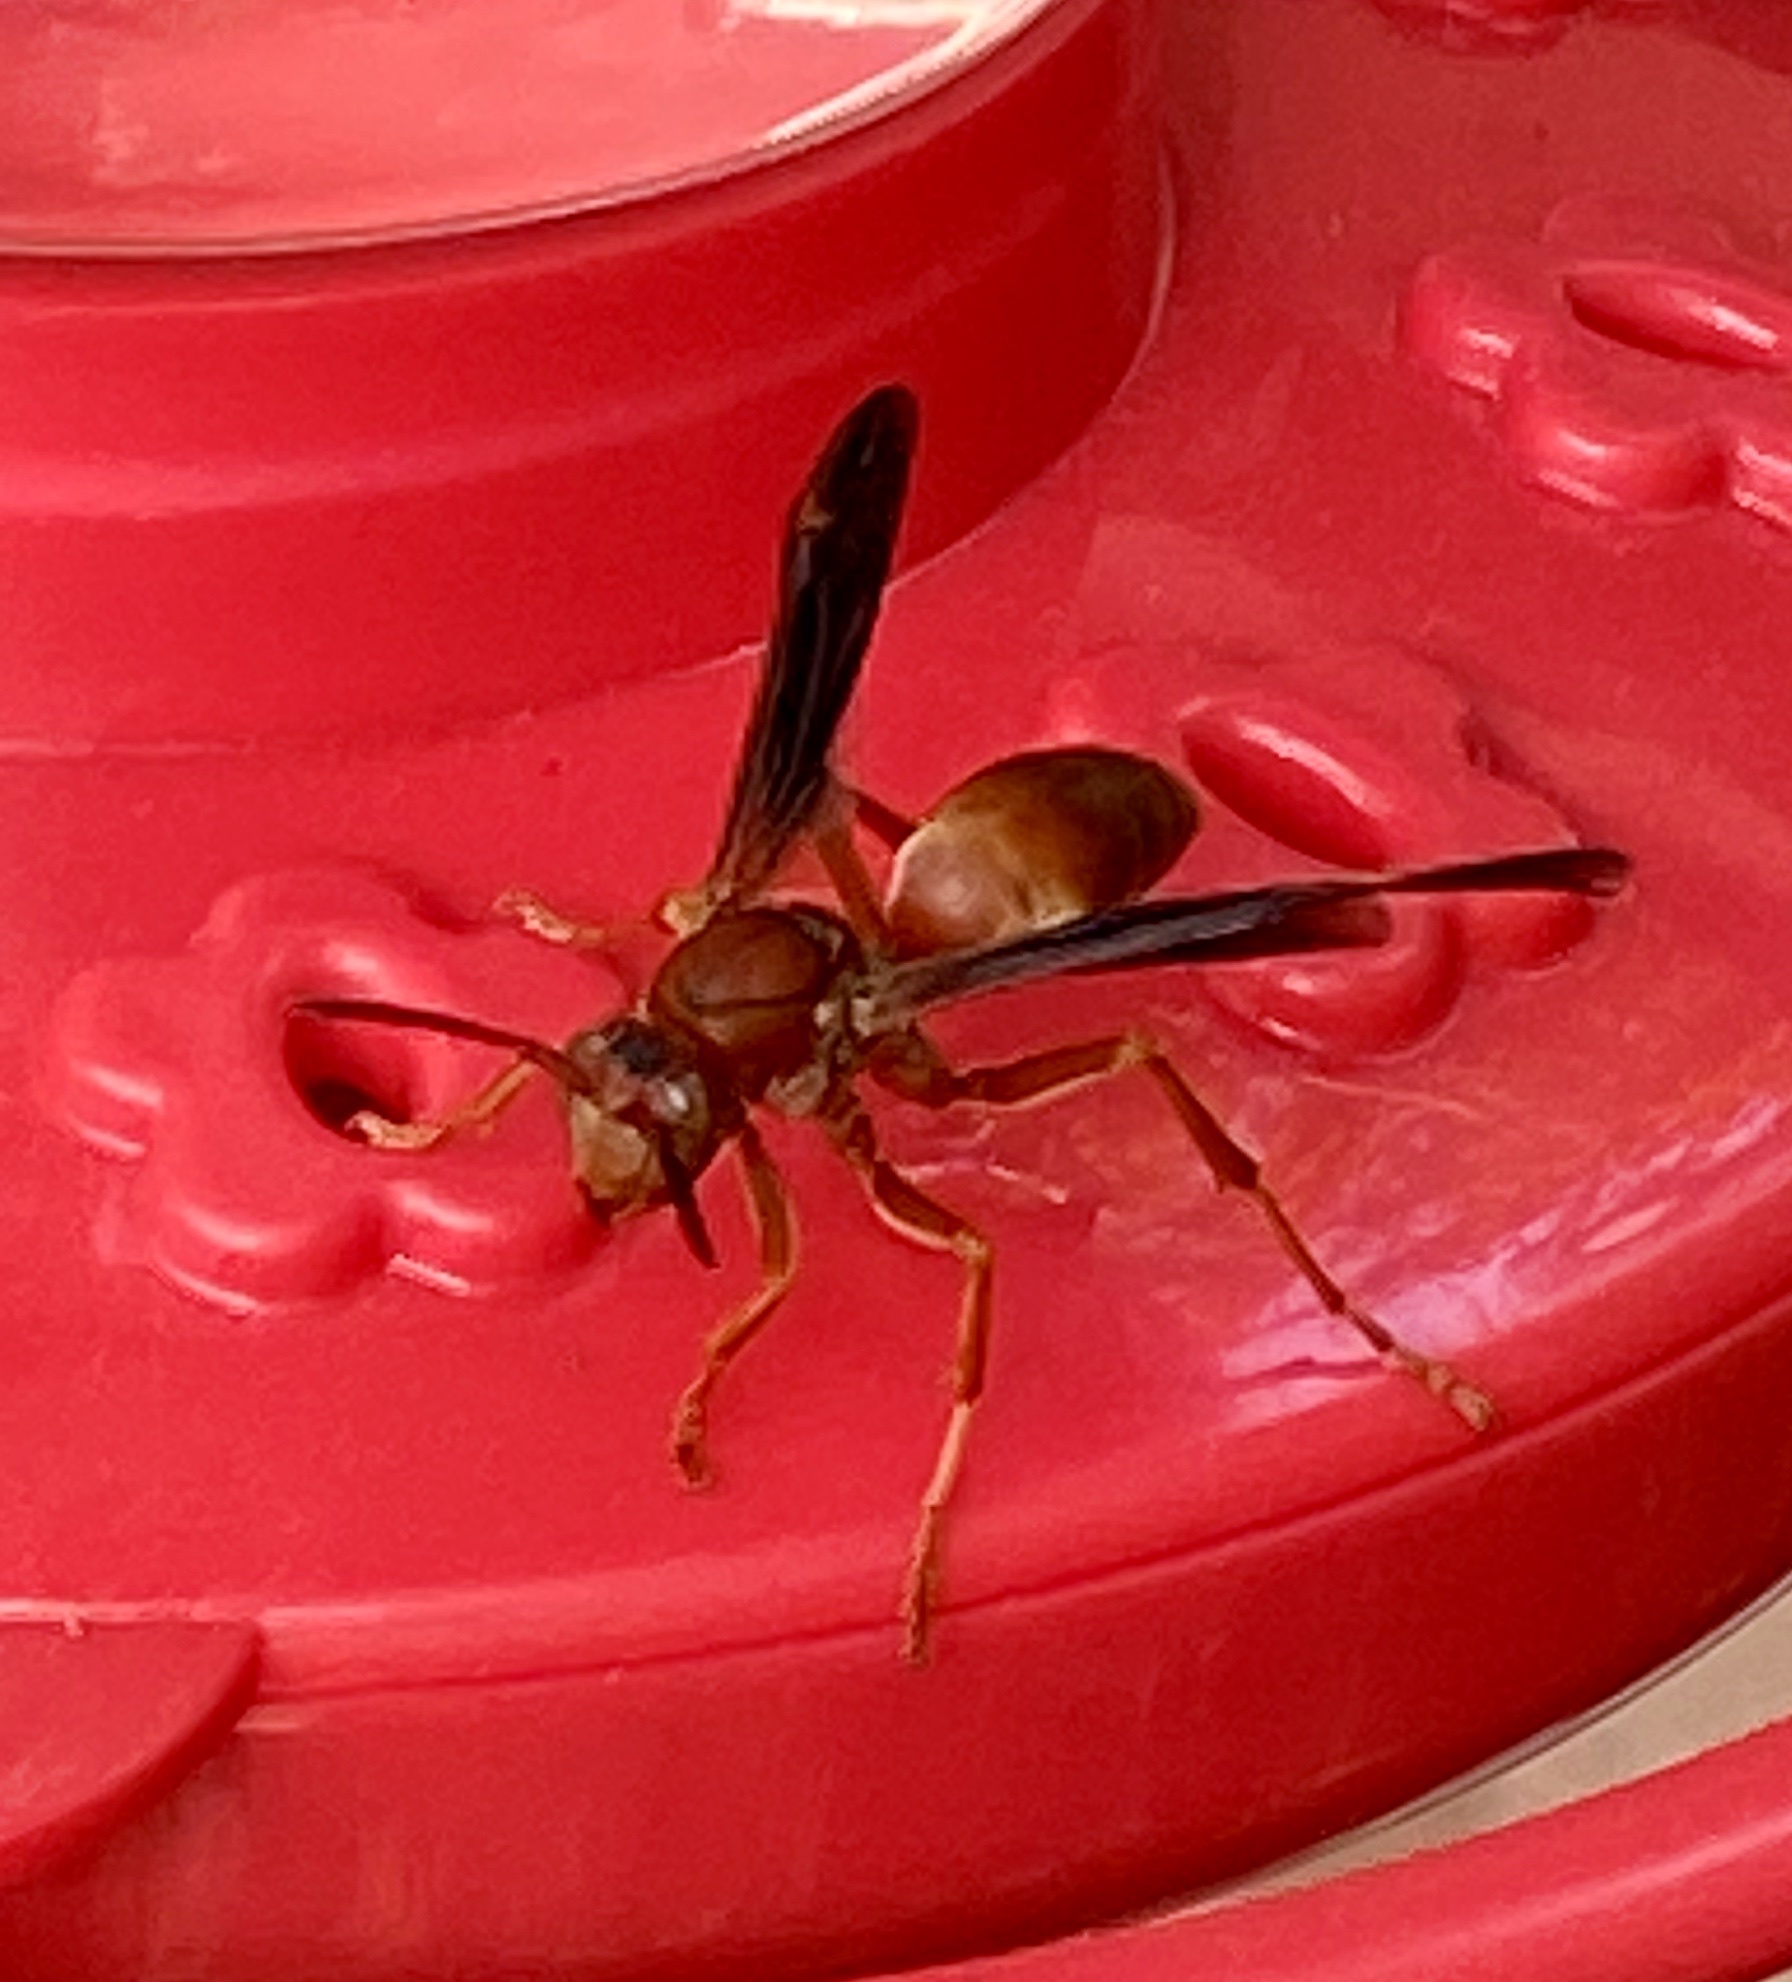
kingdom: Animalia
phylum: Arthropoda
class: Insecta
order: Hymenoptera
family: Eumenidae
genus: Polistes
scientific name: Polistes carolina
